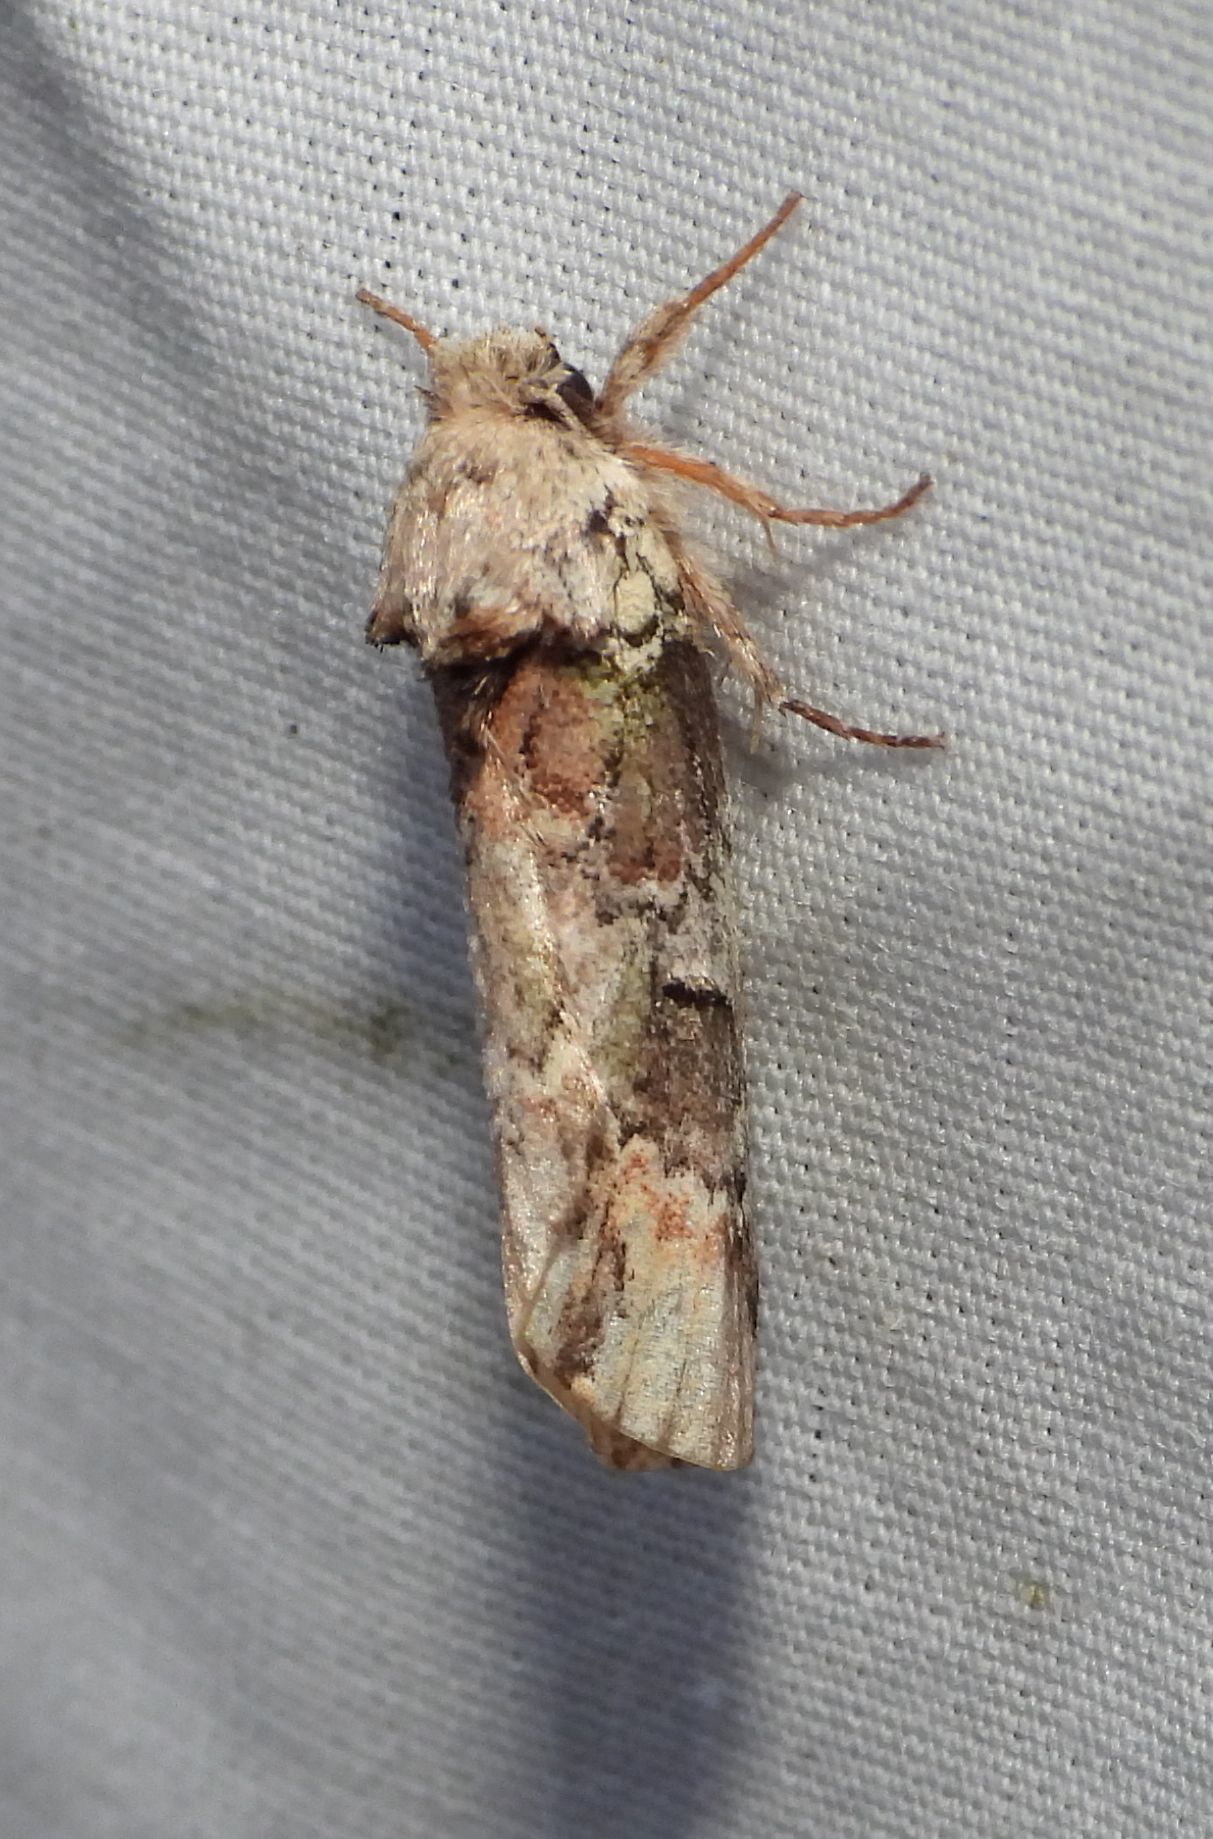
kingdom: Animalia
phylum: Arthropoda
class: Insecta
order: Lepidoptera
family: Notodontidae
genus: Schizura
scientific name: Schizura
